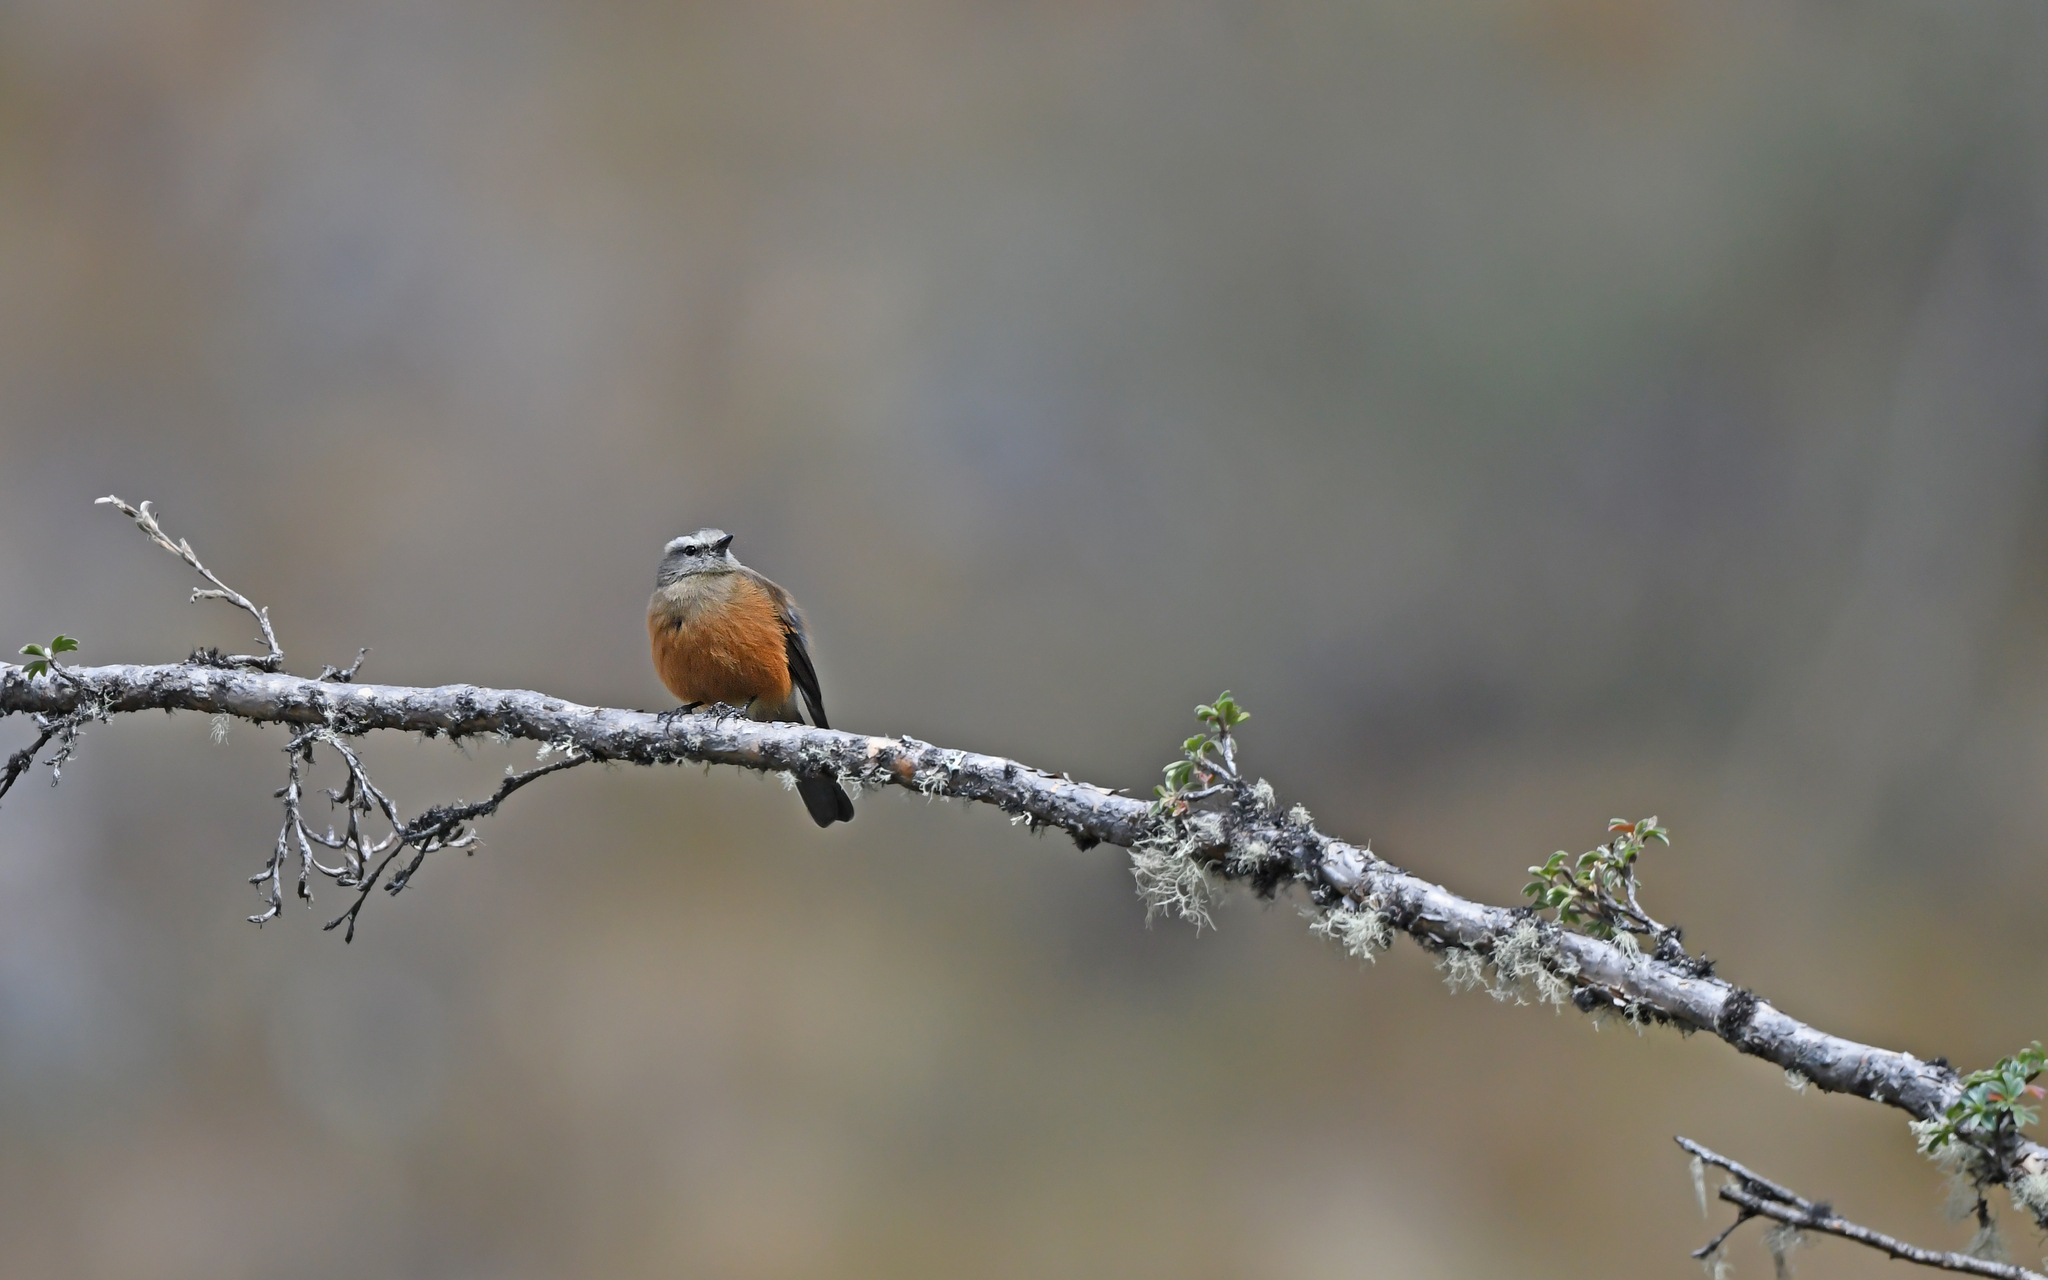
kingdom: Animalia
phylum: Chordata
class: Aves
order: Passeriformes
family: Tyrannidae
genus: Ochthoeca
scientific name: Ochthoeca oenanthoides
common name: D'orbigny's chat-tyrant
